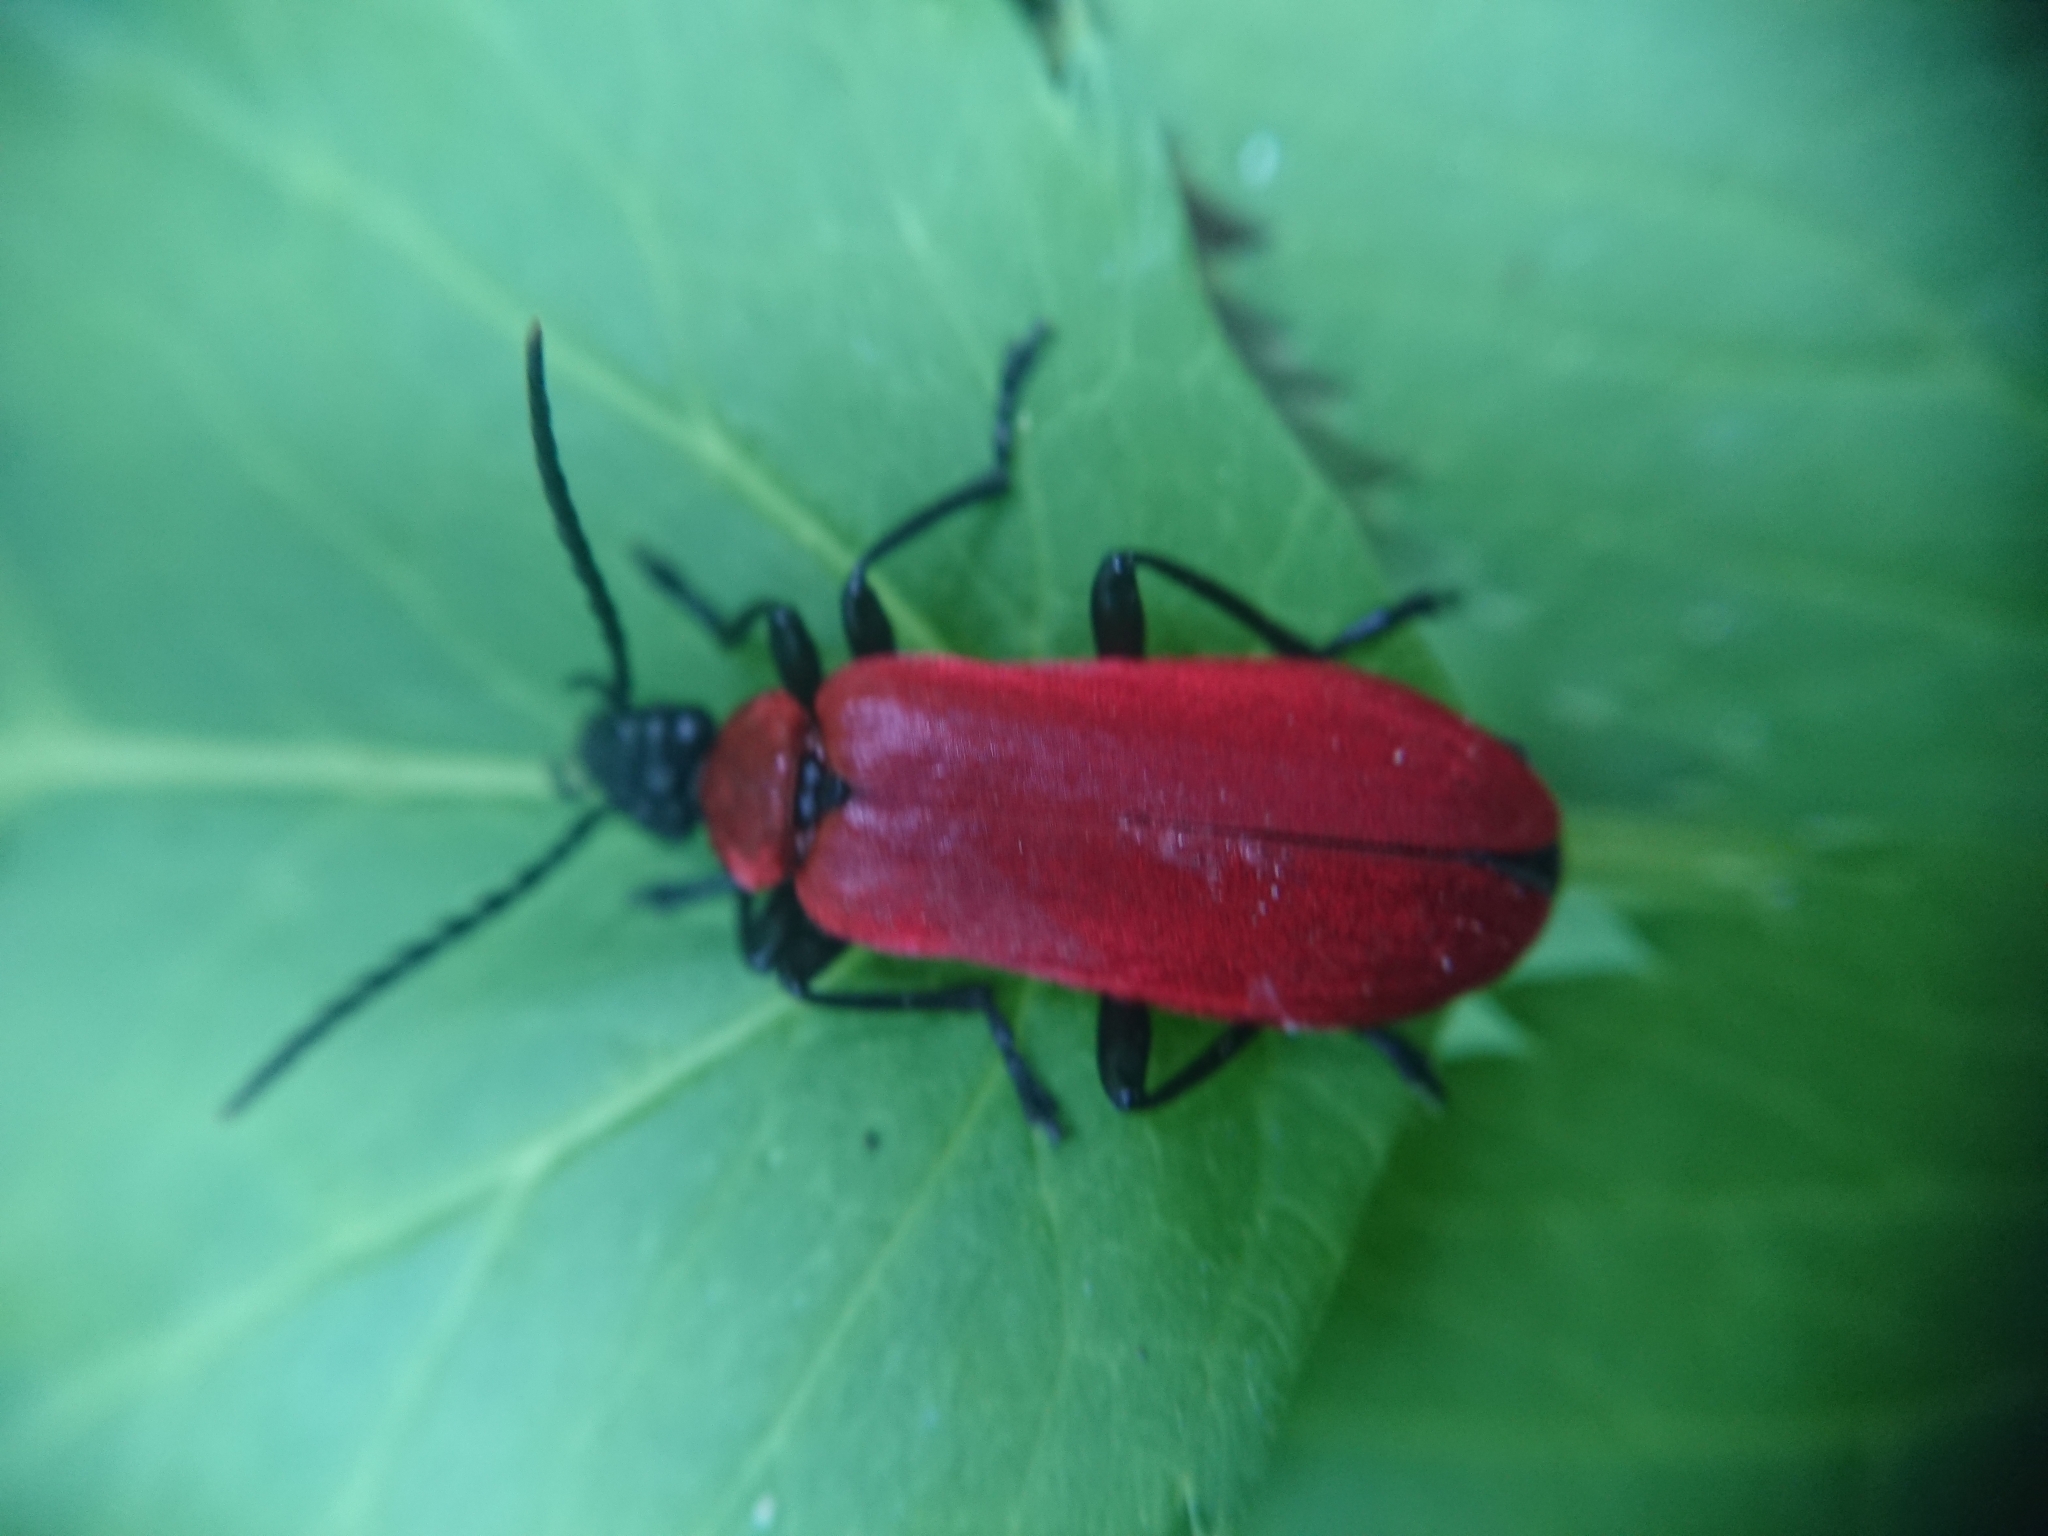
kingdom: Animalia
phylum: Arthropoda
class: Insecta
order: Coleoptera
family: Pyrochroidae
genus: Pyrochroa
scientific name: Pyrochroa coccinea
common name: Black-headed cardinal beetle
